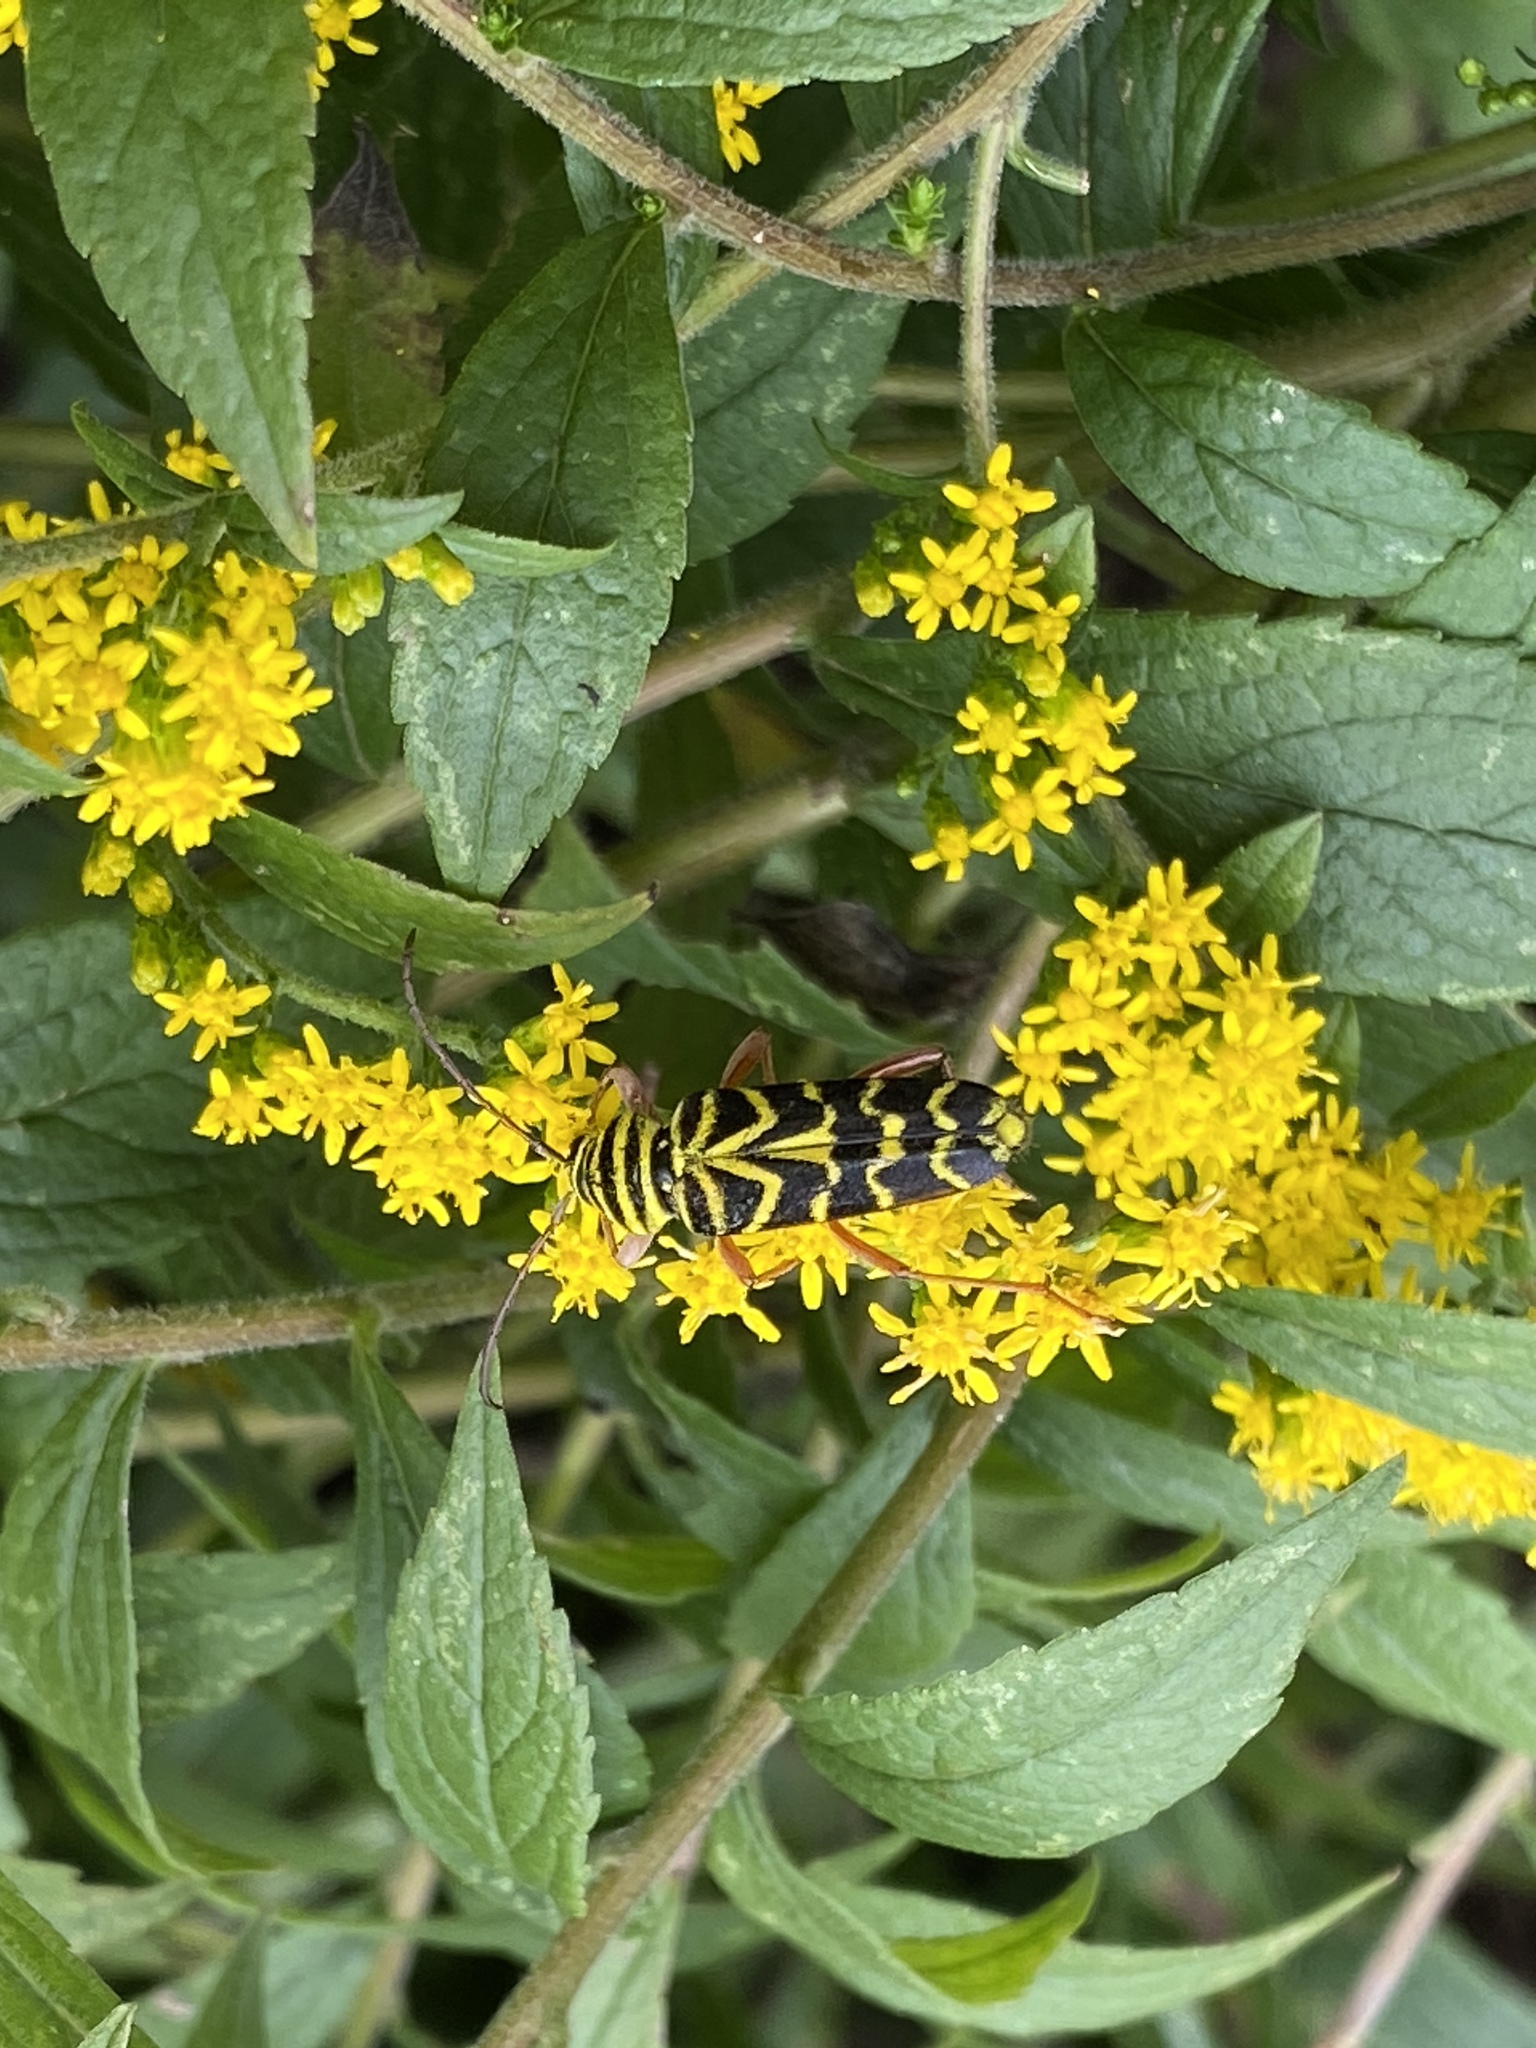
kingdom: Animalia
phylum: Arthropoda
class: Insecta
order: Coleoptera
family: Cerambycidae
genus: Megacyllene
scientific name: Megacyllene robiniae
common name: Locust borer
